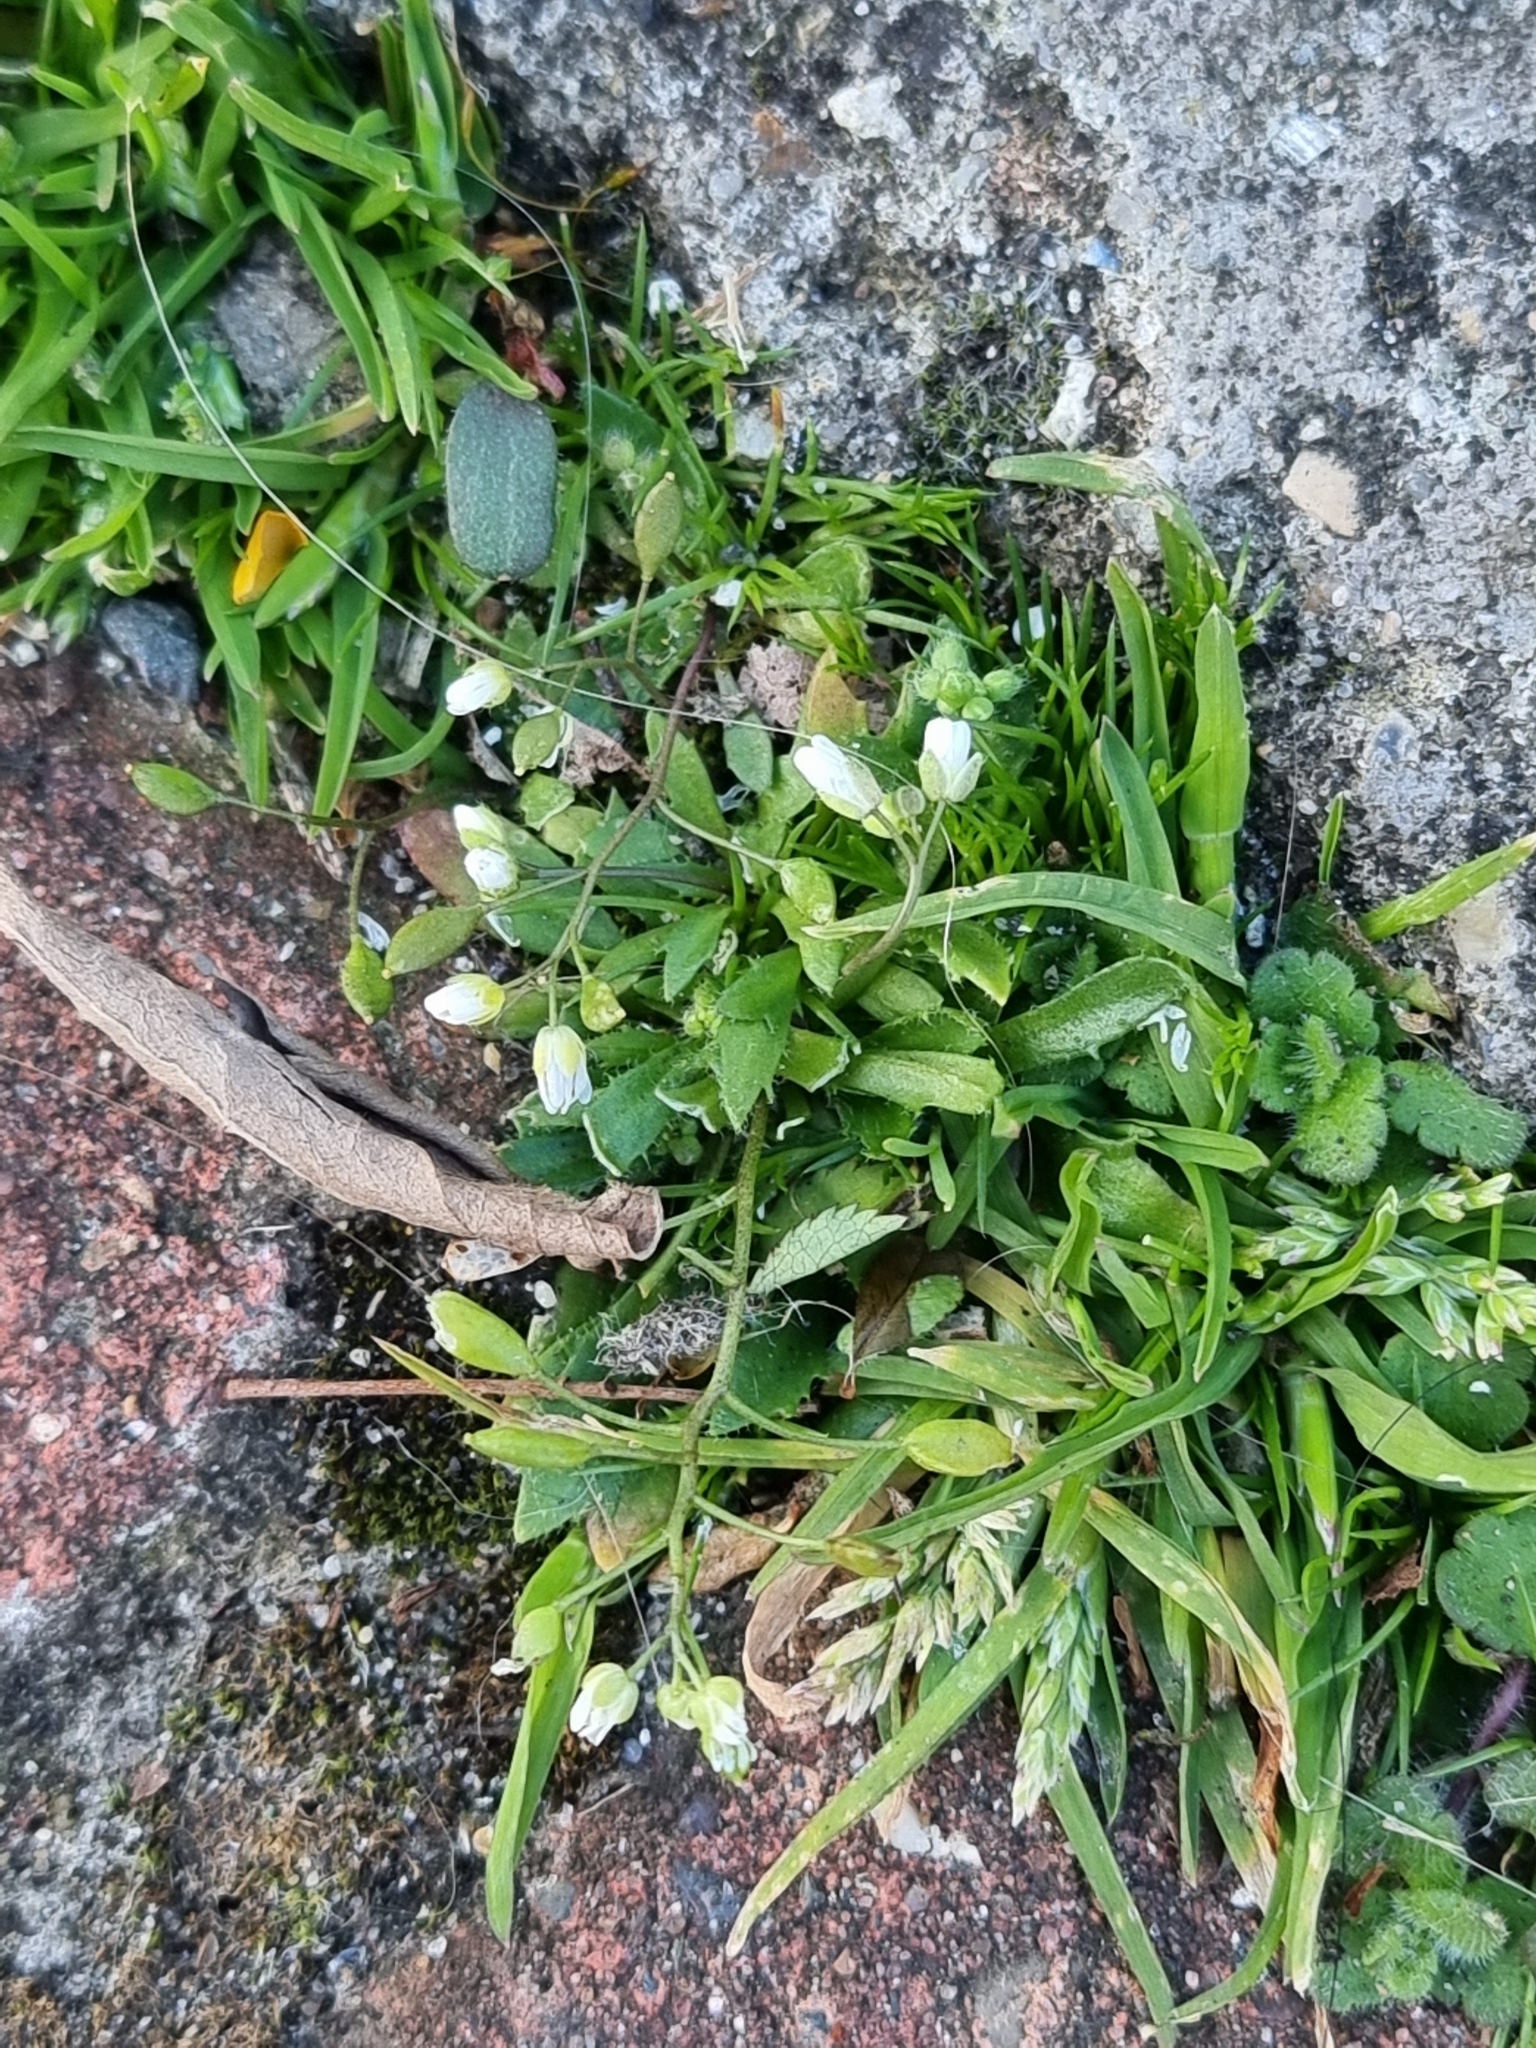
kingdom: Plantae
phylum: Tracheophyta
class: Magnoliopsida
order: Brassicales
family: Brassicaceae
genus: Draba
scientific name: Draba verna
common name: Spring draba
